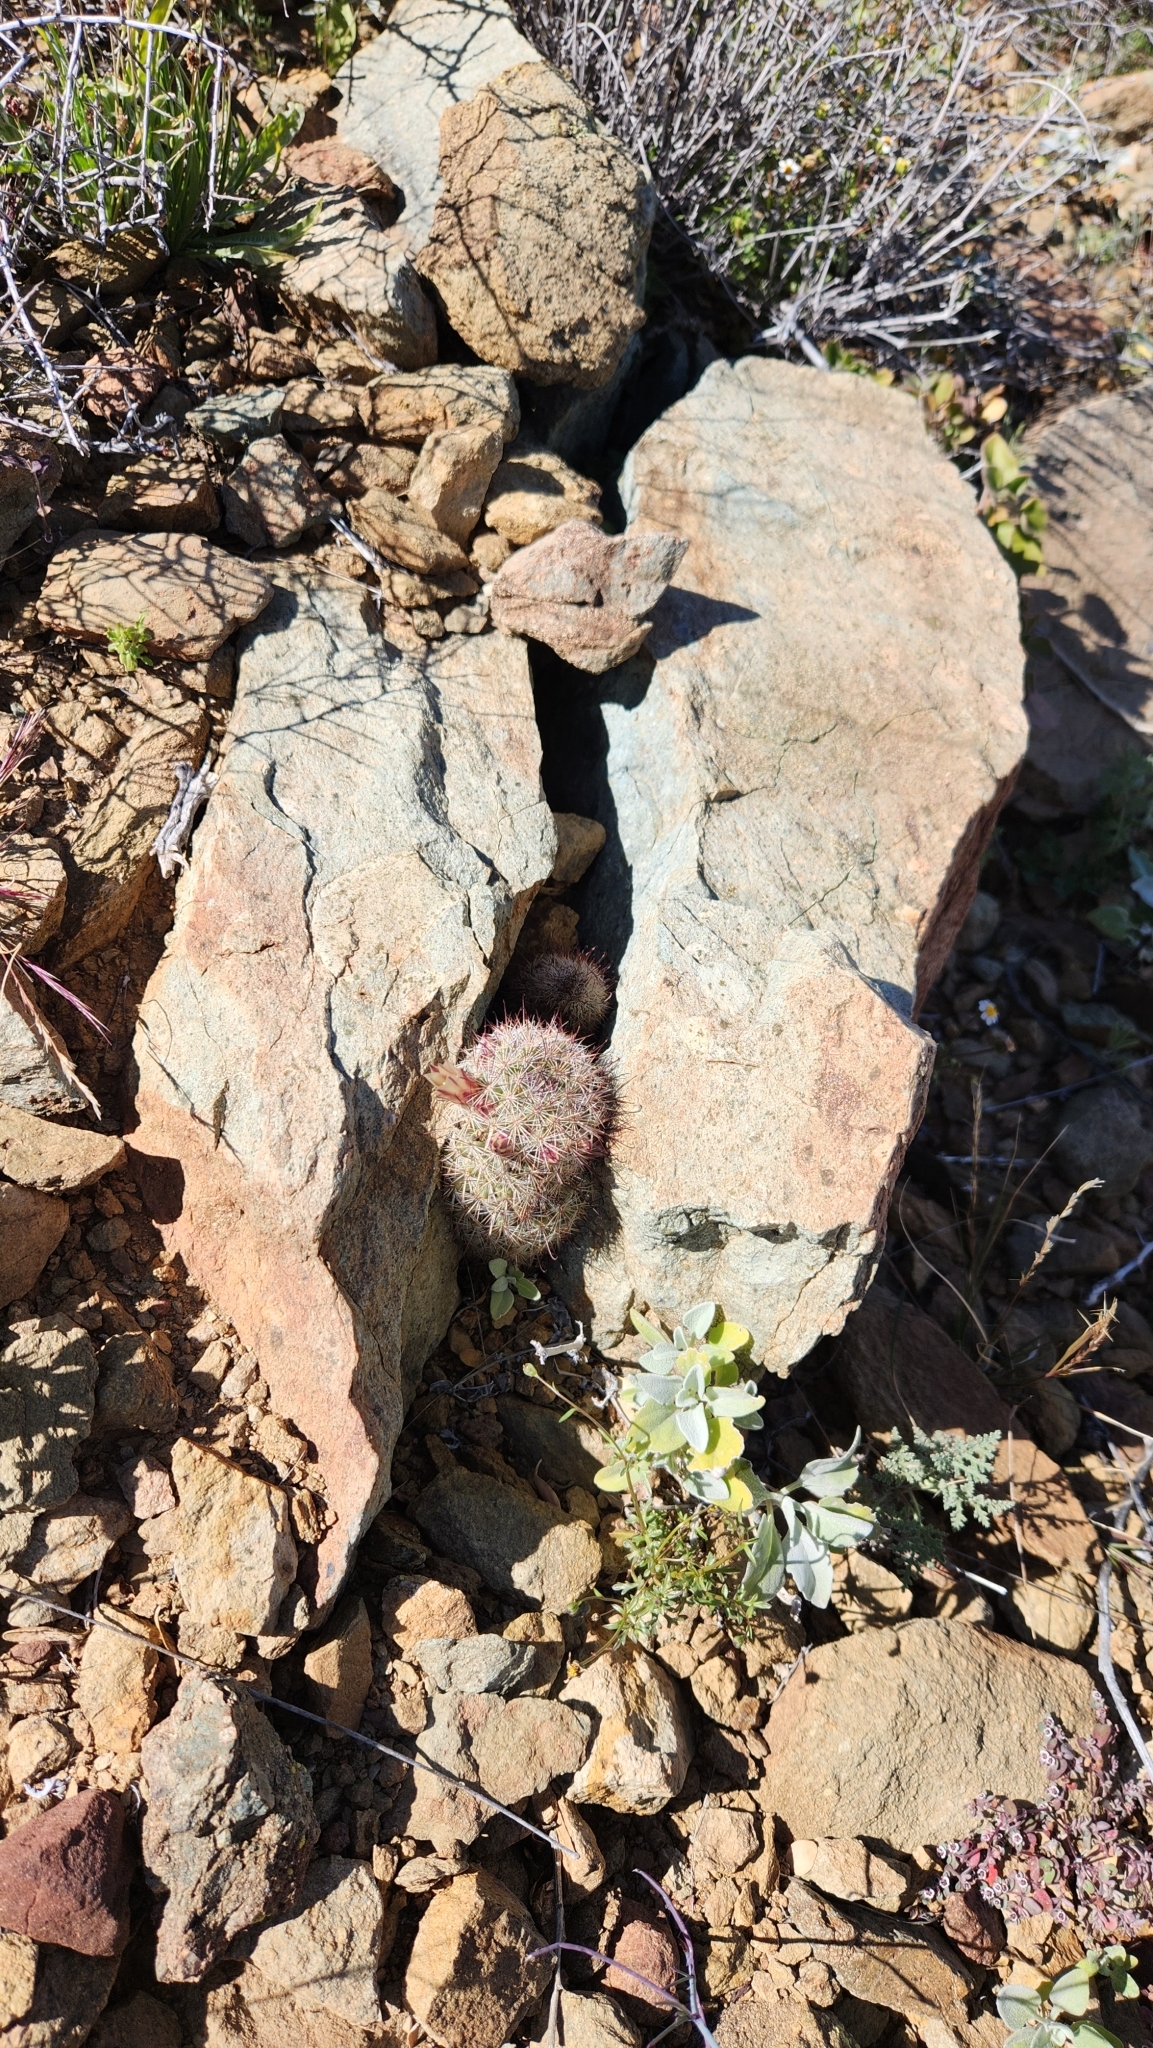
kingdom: Plantae
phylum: Tracheophyta
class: Magnoliopsida
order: Caryophyllales
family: Cactaceae
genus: Cochemiea
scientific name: Cochemiea dioica
